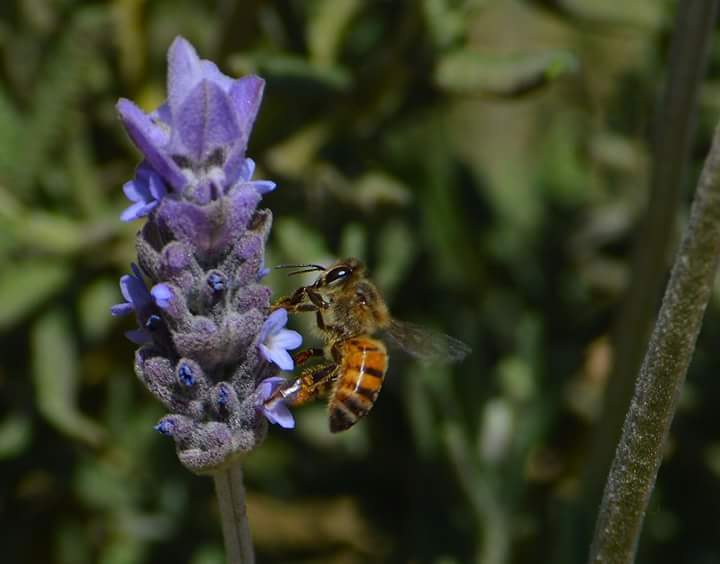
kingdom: Animalia
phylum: Arthropoda
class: Insecta
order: Hymenoptera
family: Apidae
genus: Apis
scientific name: Apis mellifera
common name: Honey bee
